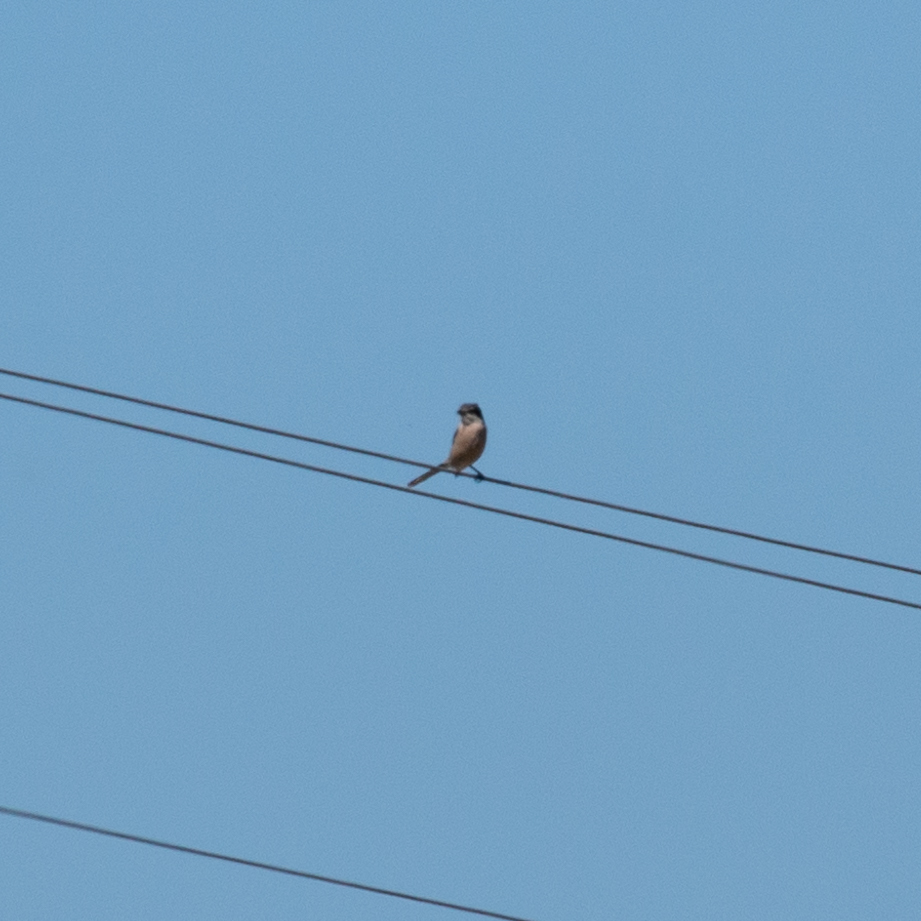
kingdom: Animalia
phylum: Chordata
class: Aves
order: Passeriformes
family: Laniidae
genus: Lanius
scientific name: Lanius meridionalis
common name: Iberian grey shrike
